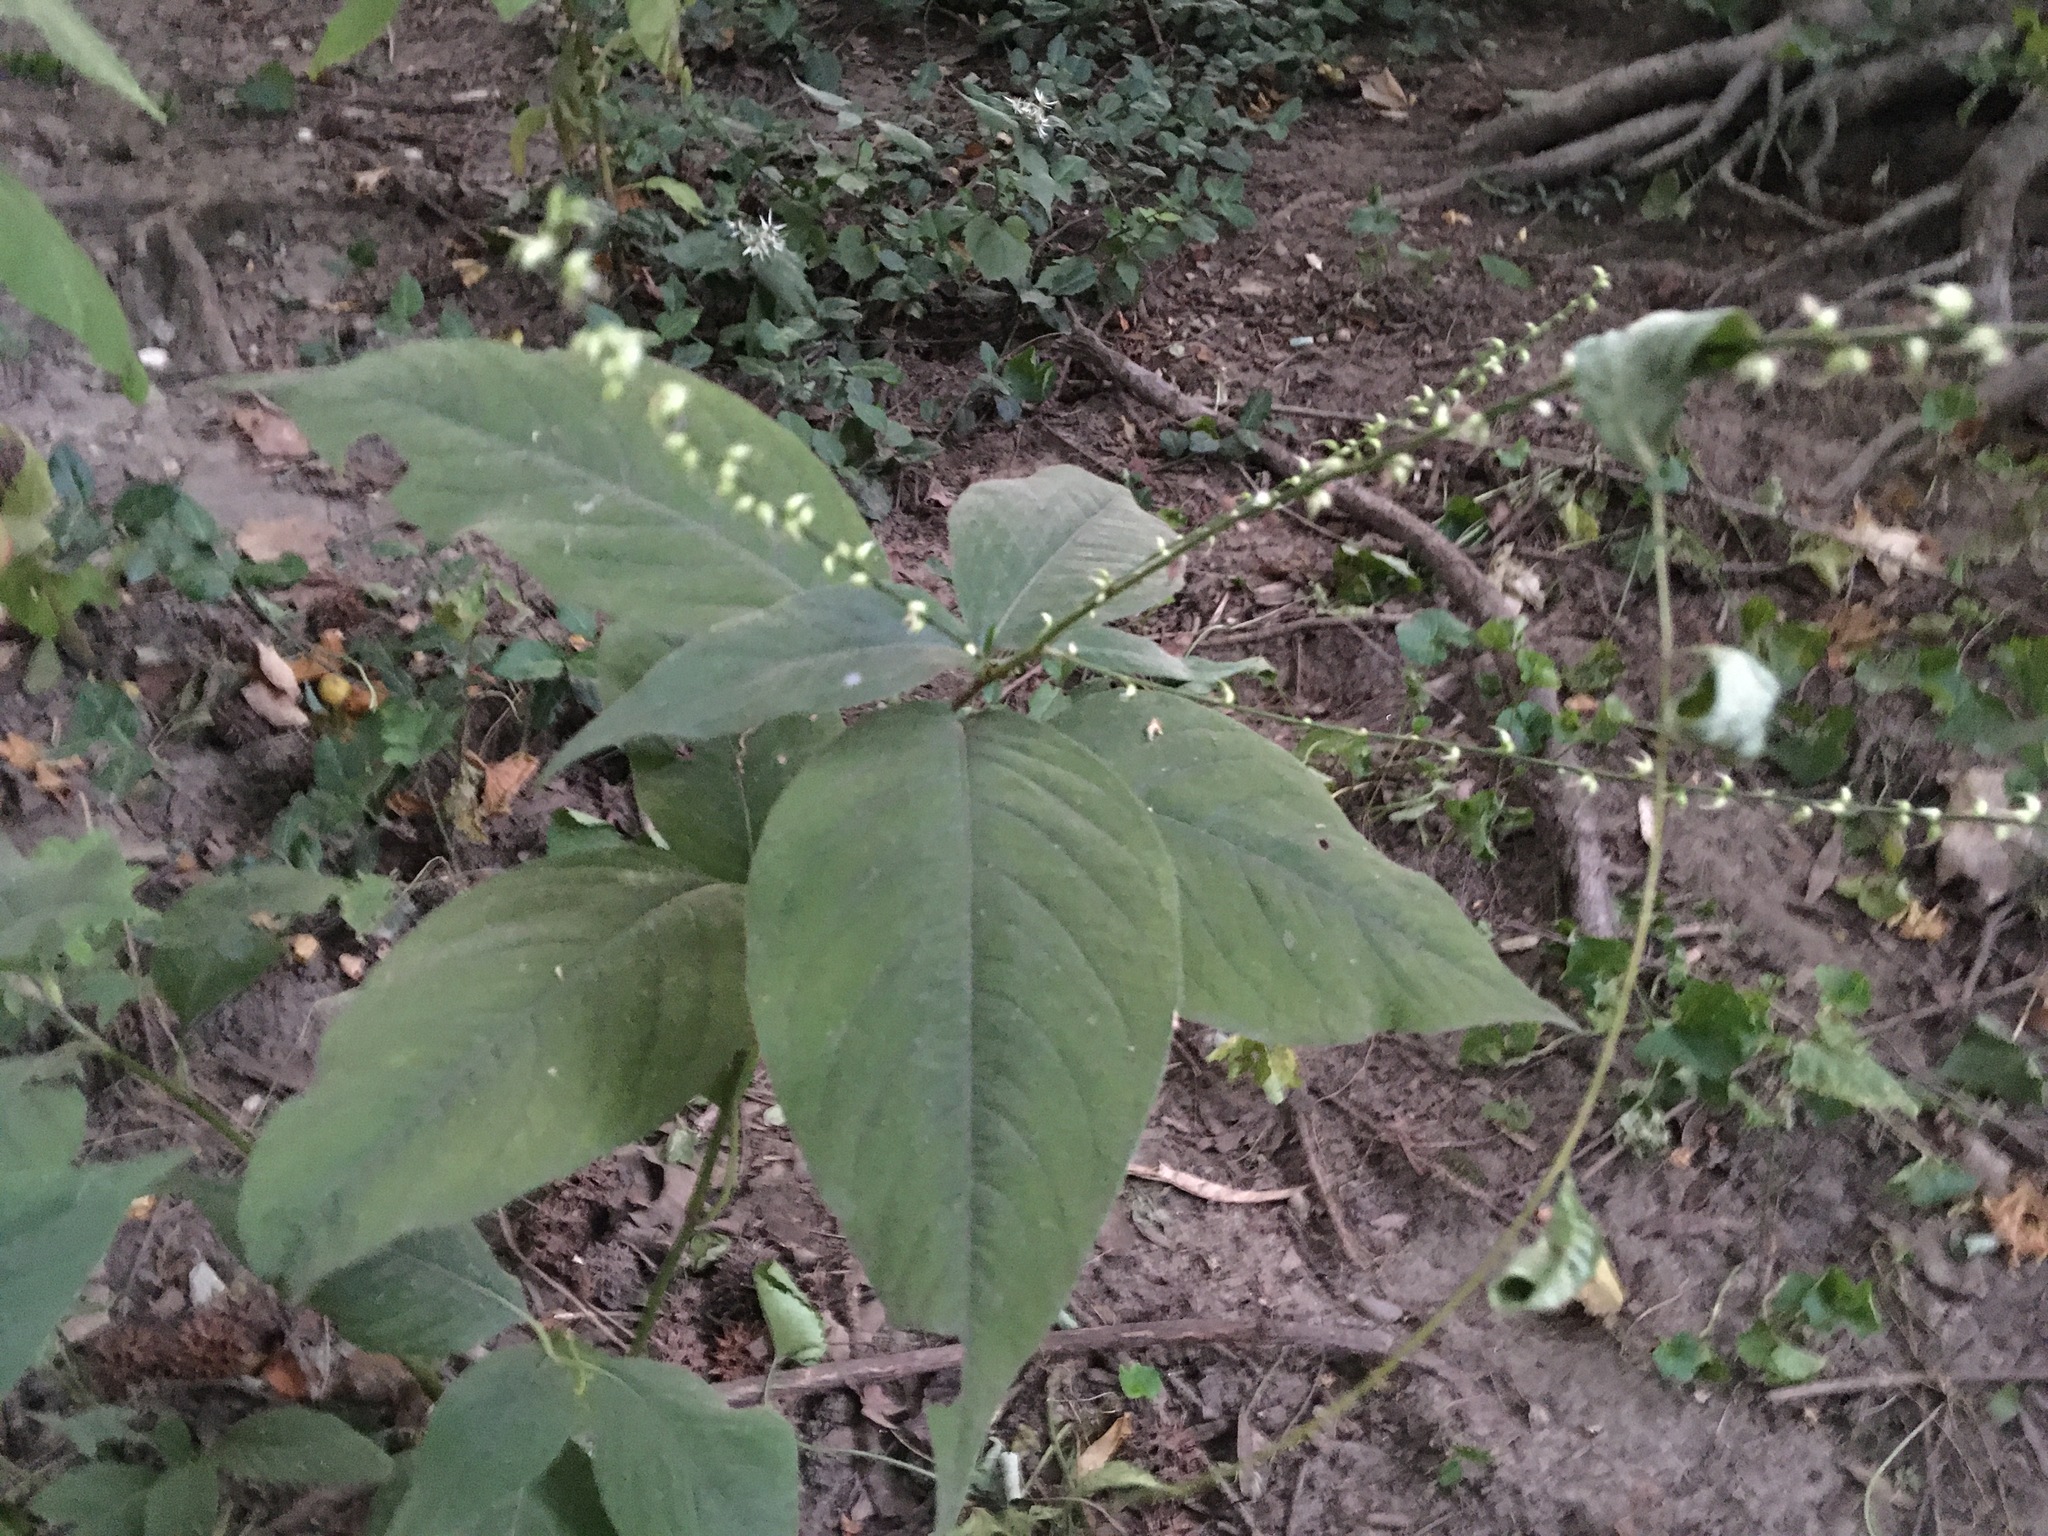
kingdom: Plantae
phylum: Tracheophyta
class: Magnoliopsida
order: Caryophyllales
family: Polygonaceae
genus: Persicaria
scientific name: Persicaria virginiana
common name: Jumpseed
